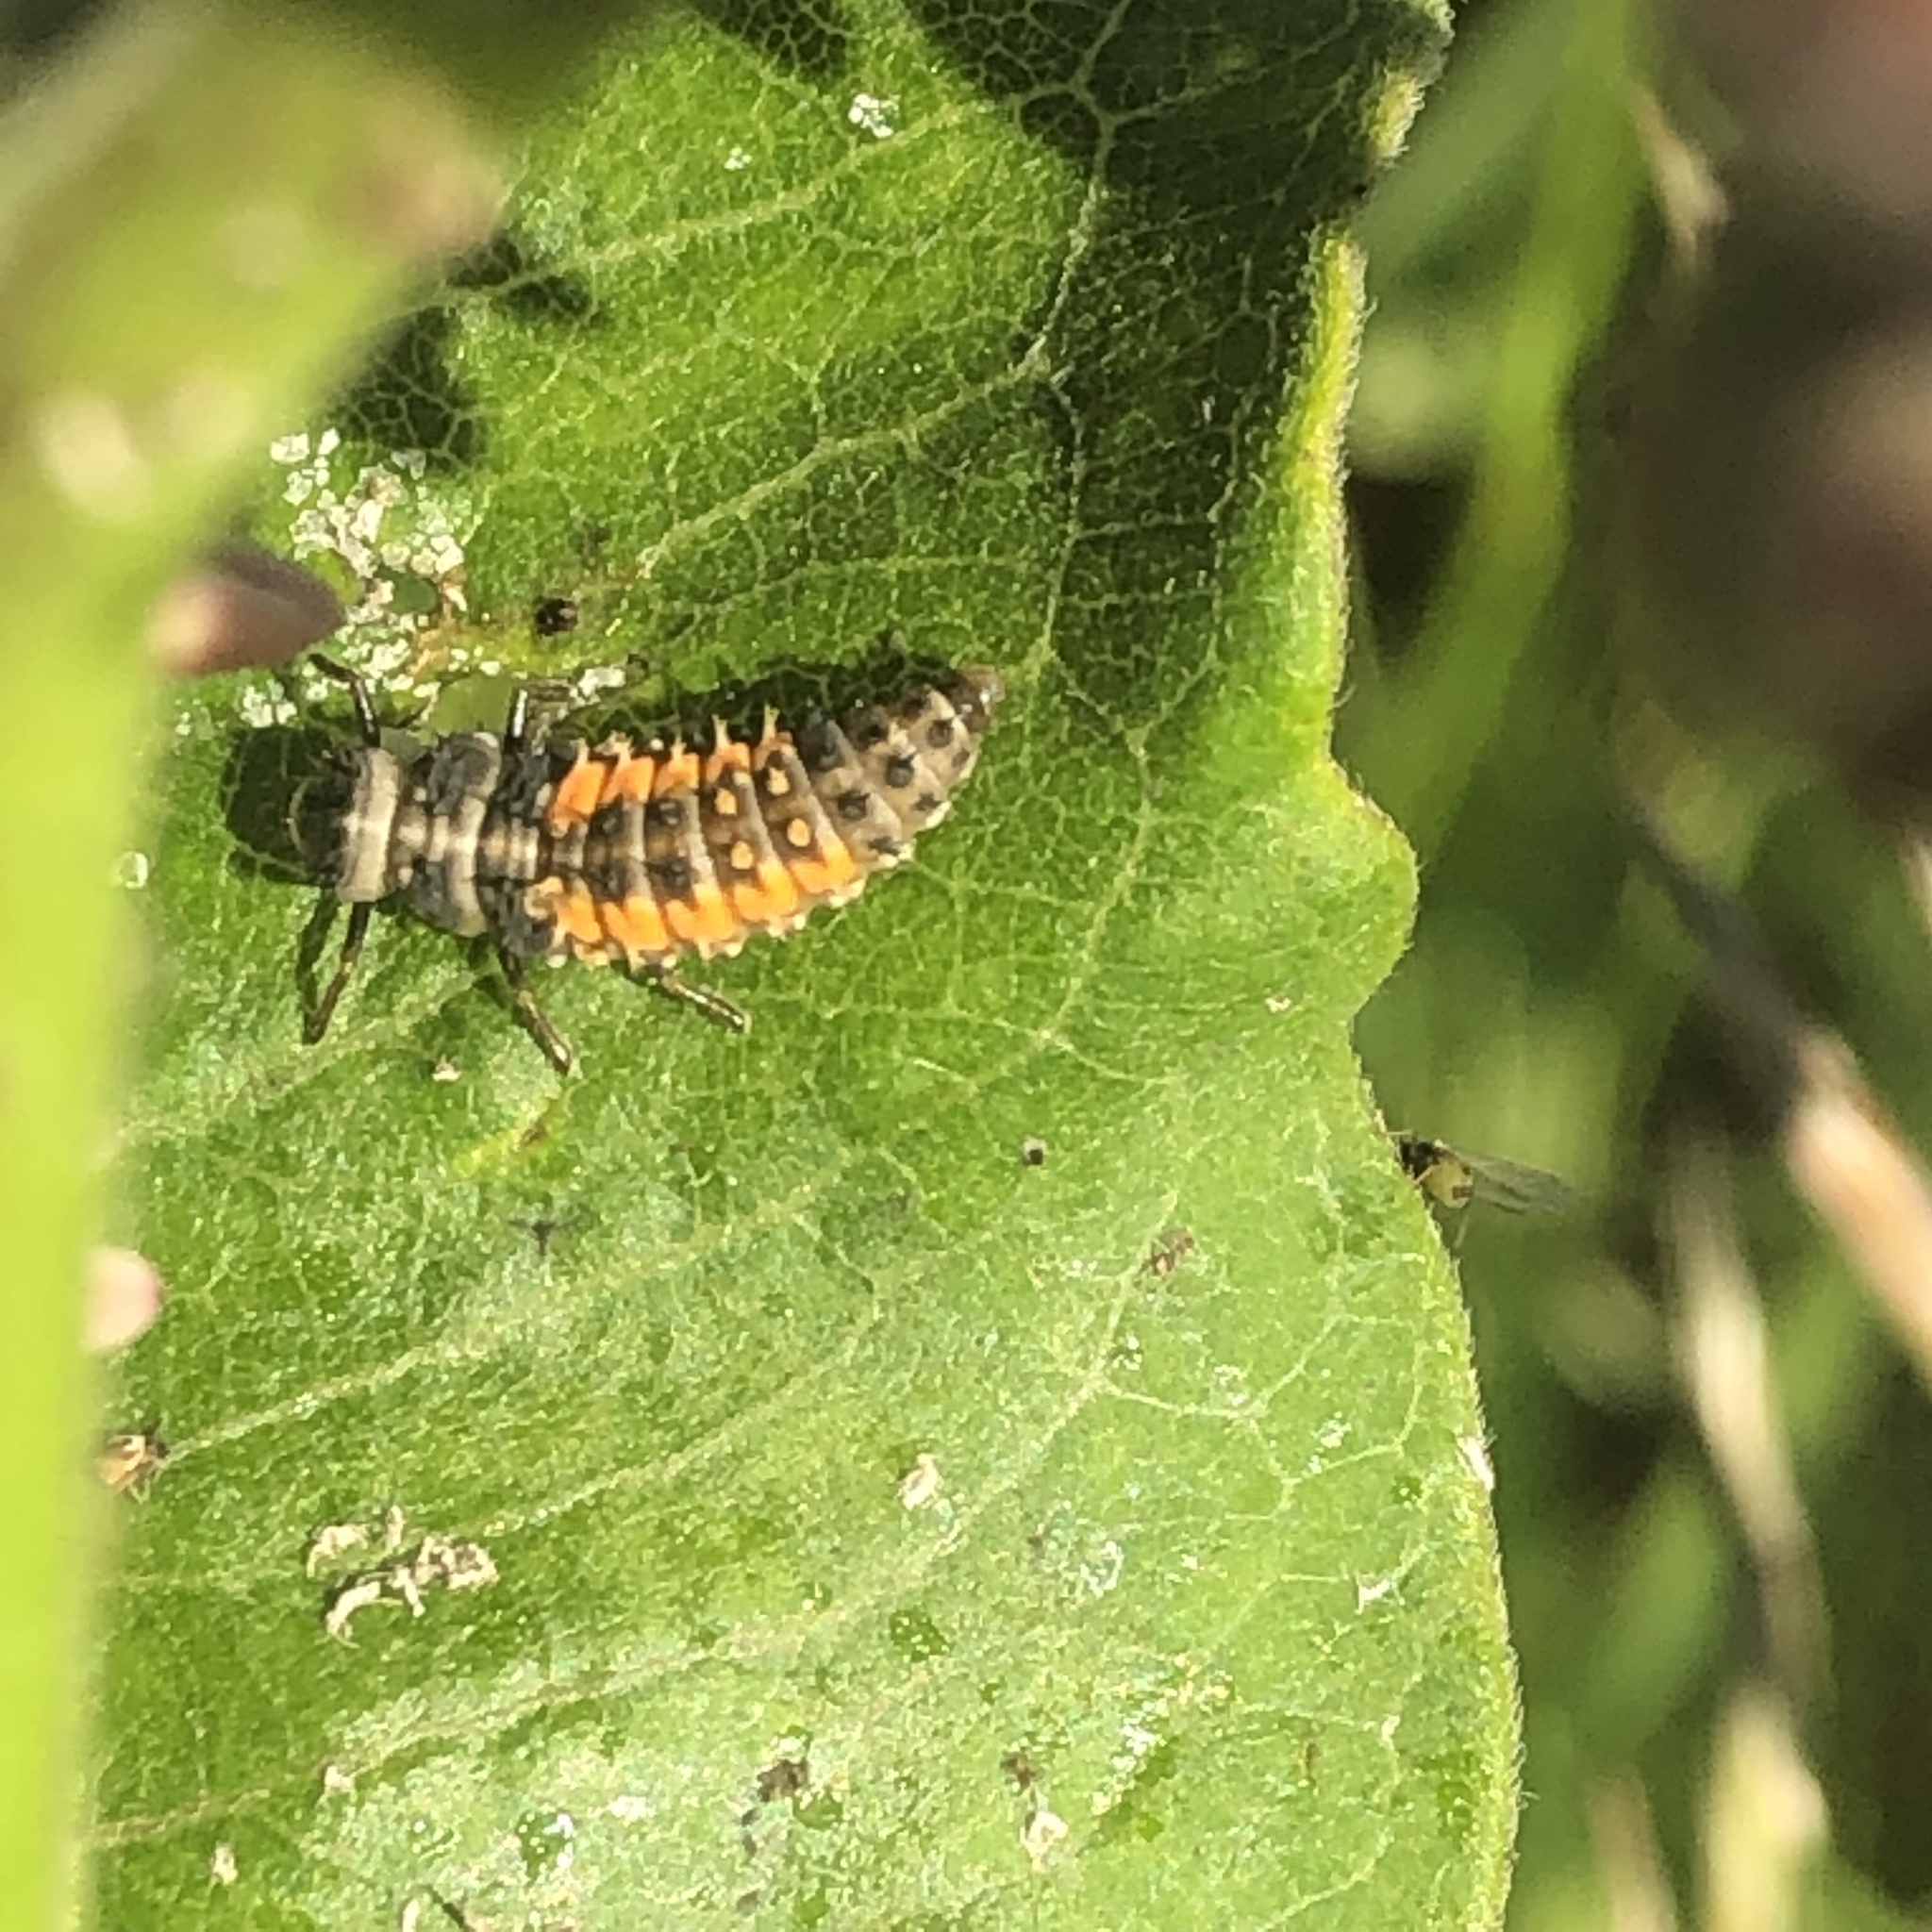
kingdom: Animalia
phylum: Arthropoda
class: Insecta
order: Coleoptera
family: Coccinellidae
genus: Harmonia
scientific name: Harmonia axyridis
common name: Harlequin ladybird
